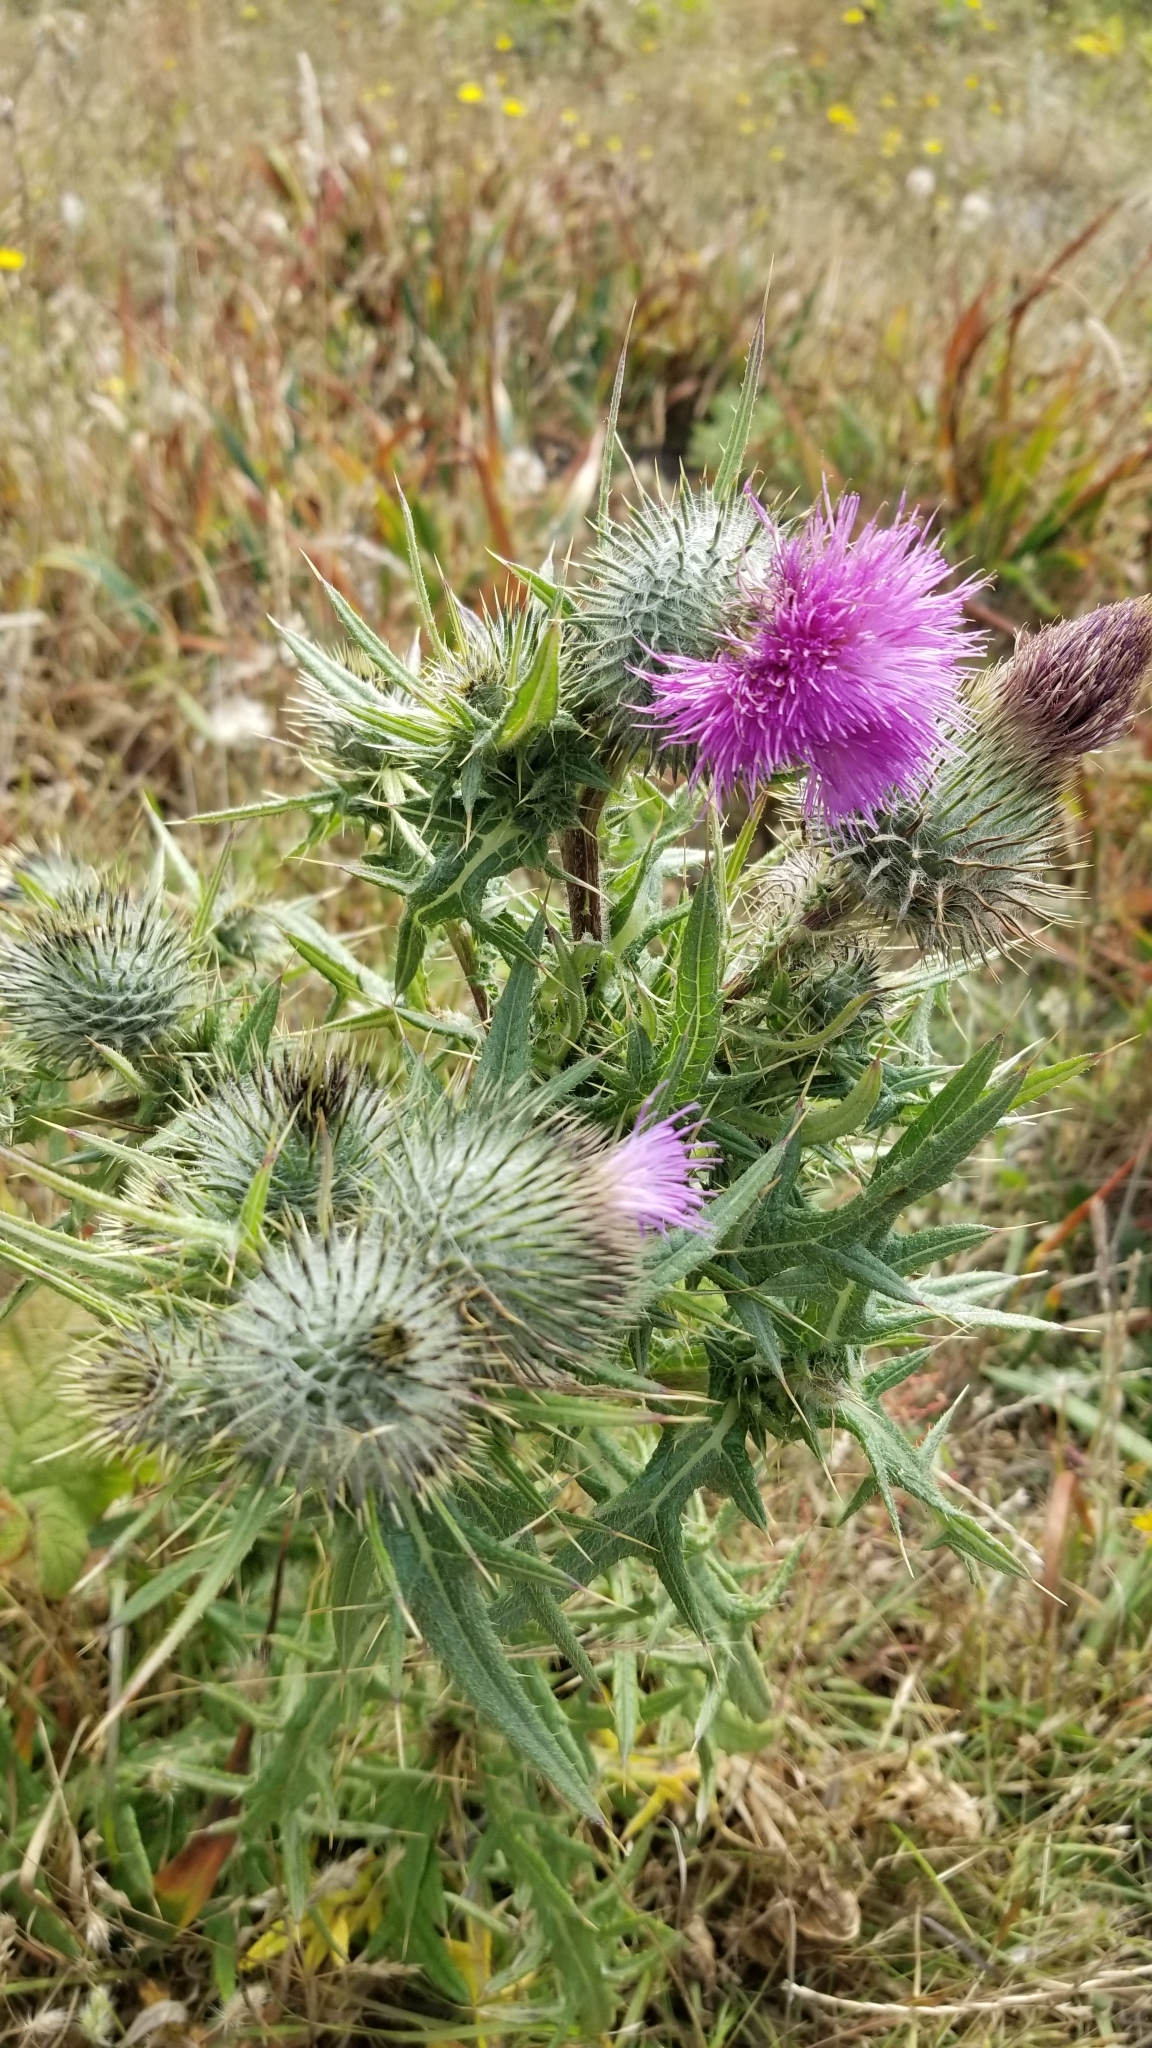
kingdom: Plantae
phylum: Tracheophyta
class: Magnoliopsida
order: Asterales
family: Asteraceae
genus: Cirsium
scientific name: Cirsium vulgare
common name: Bull thistle
